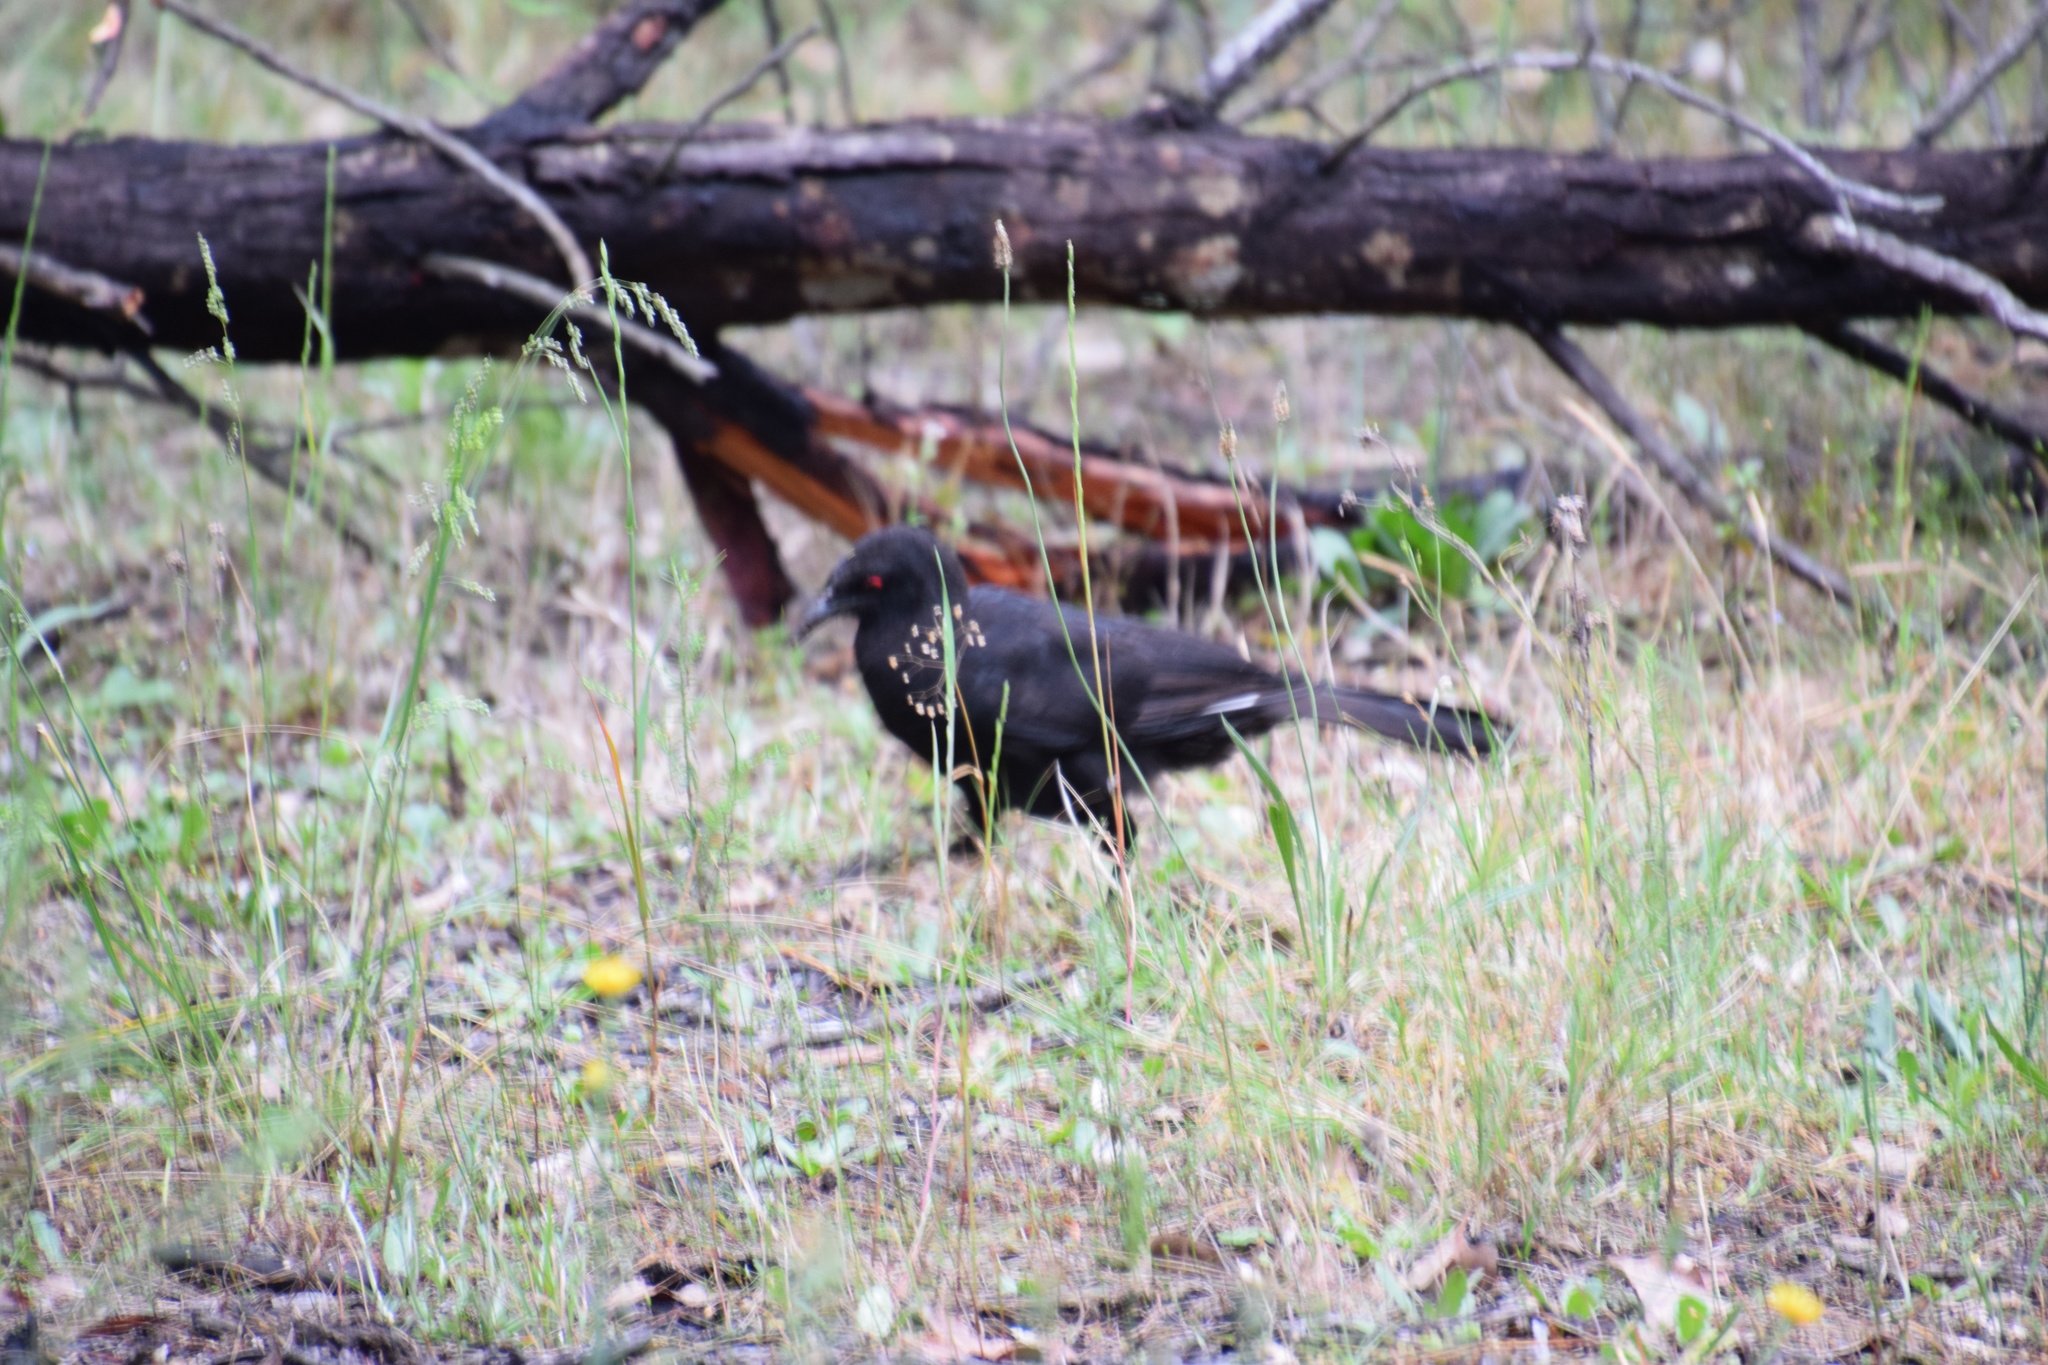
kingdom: Animalia
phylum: Chordata
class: Aves
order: Passeriformes
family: Corcoracidae
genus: Corcorax
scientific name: Corcorax melanoramphos
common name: White-winged chough
